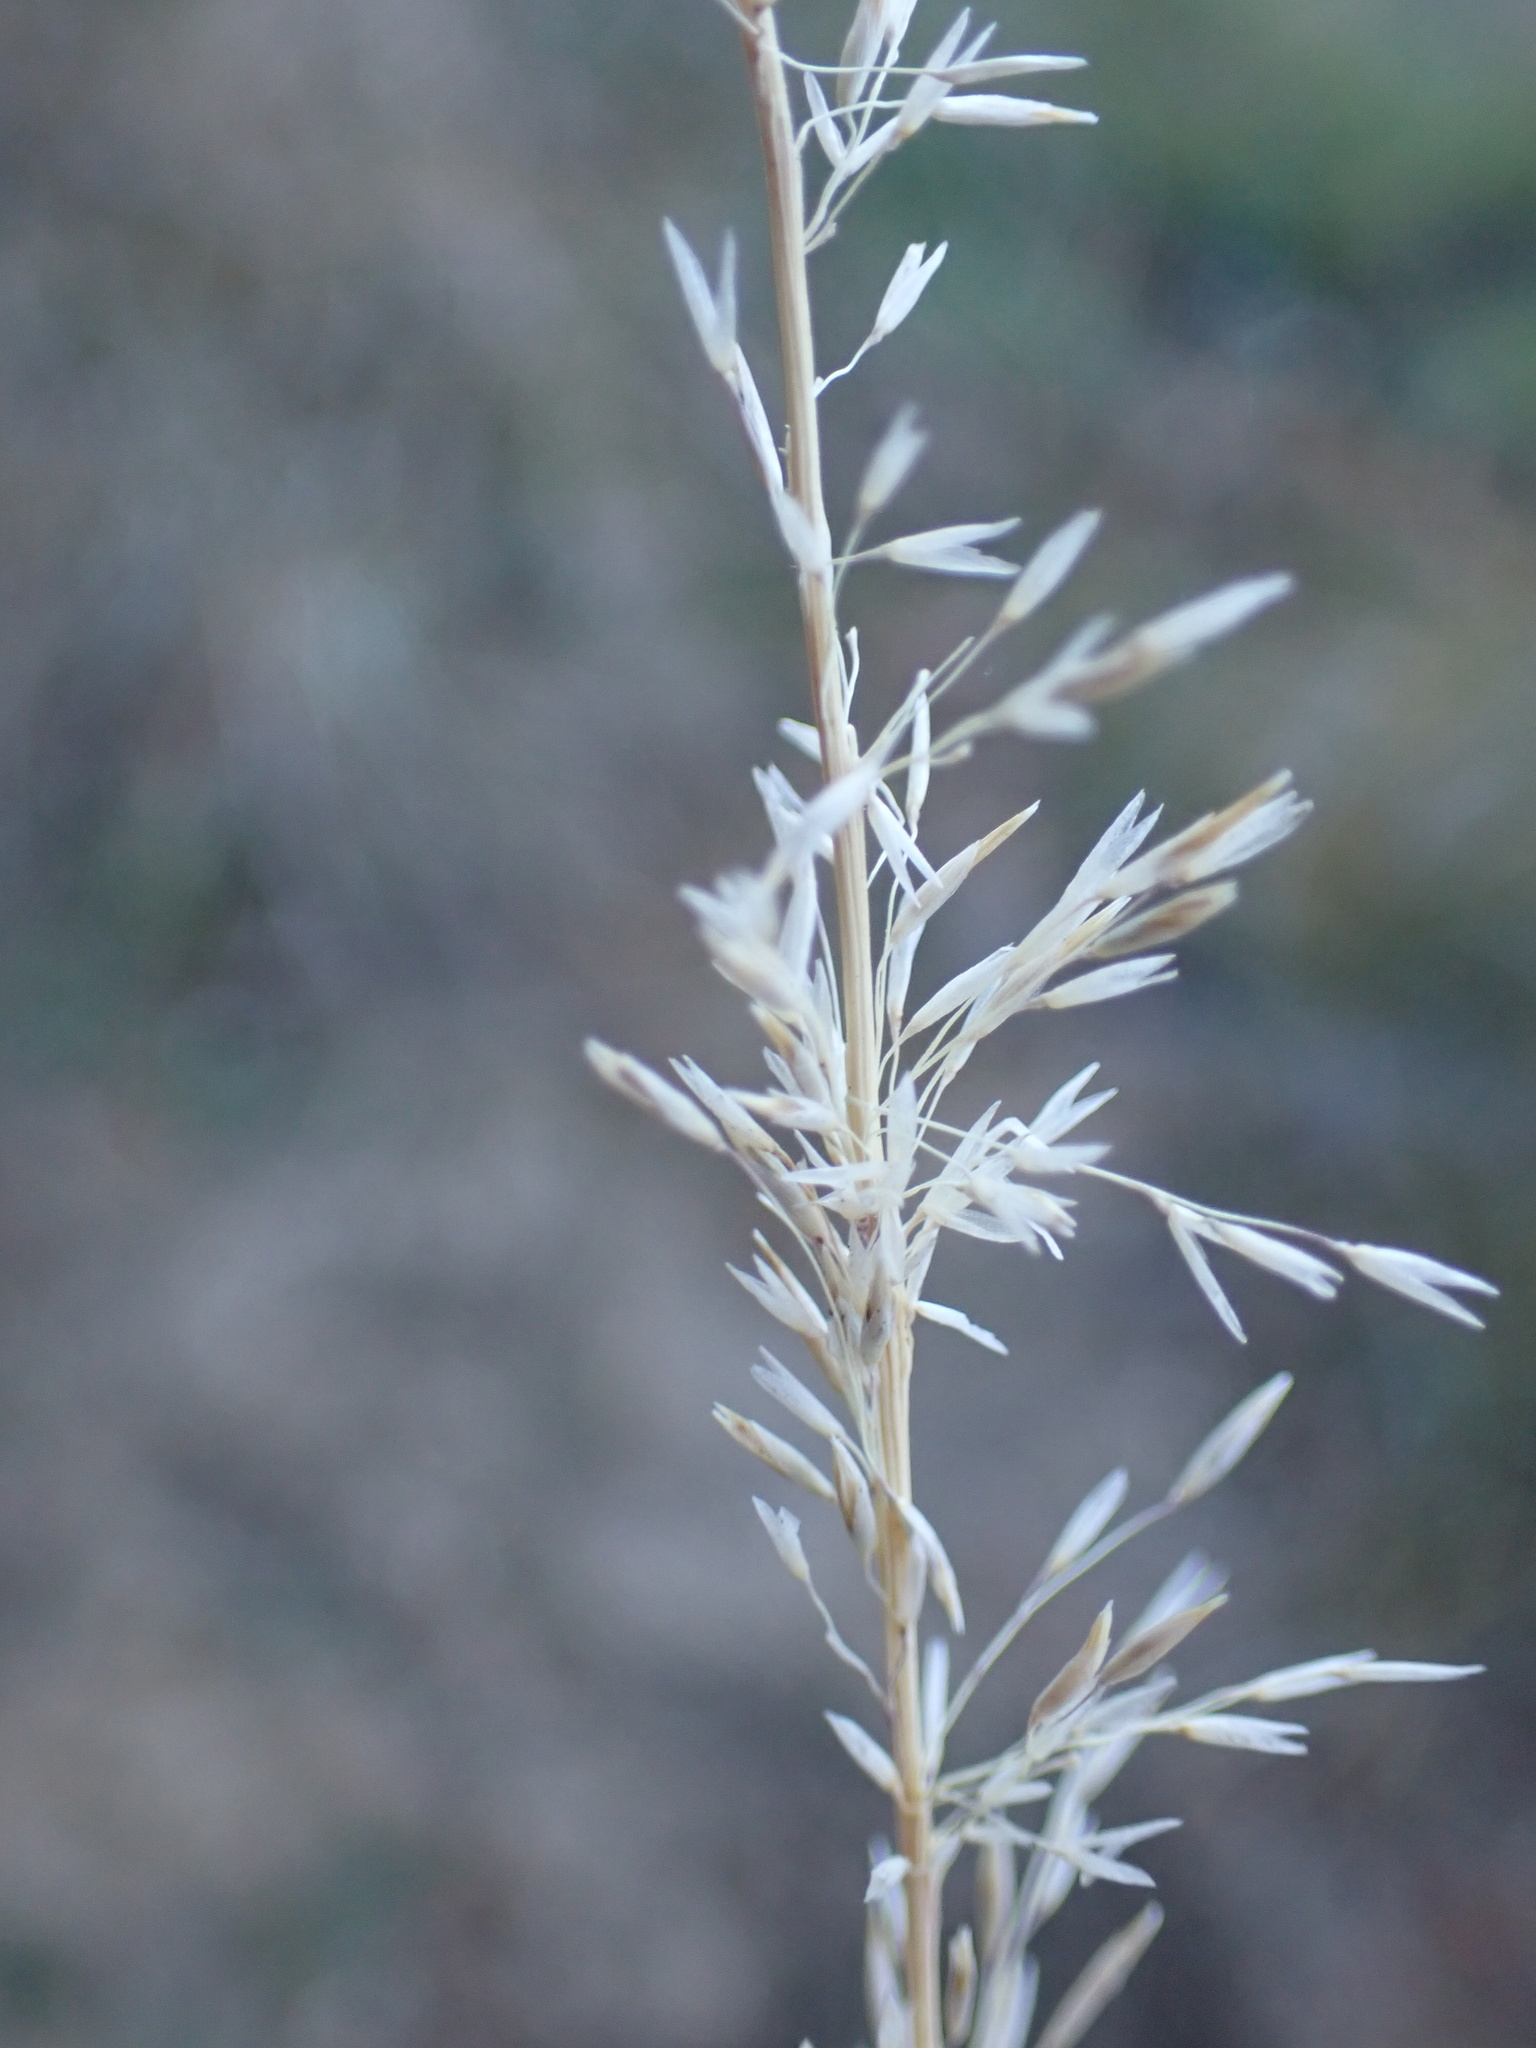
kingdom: Plantae
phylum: Tracheophyta
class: Liliopsida
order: Poales
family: Poaceae
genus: Muhlenbergia
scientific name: Muhlenbergia rigens
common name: Deer grass
